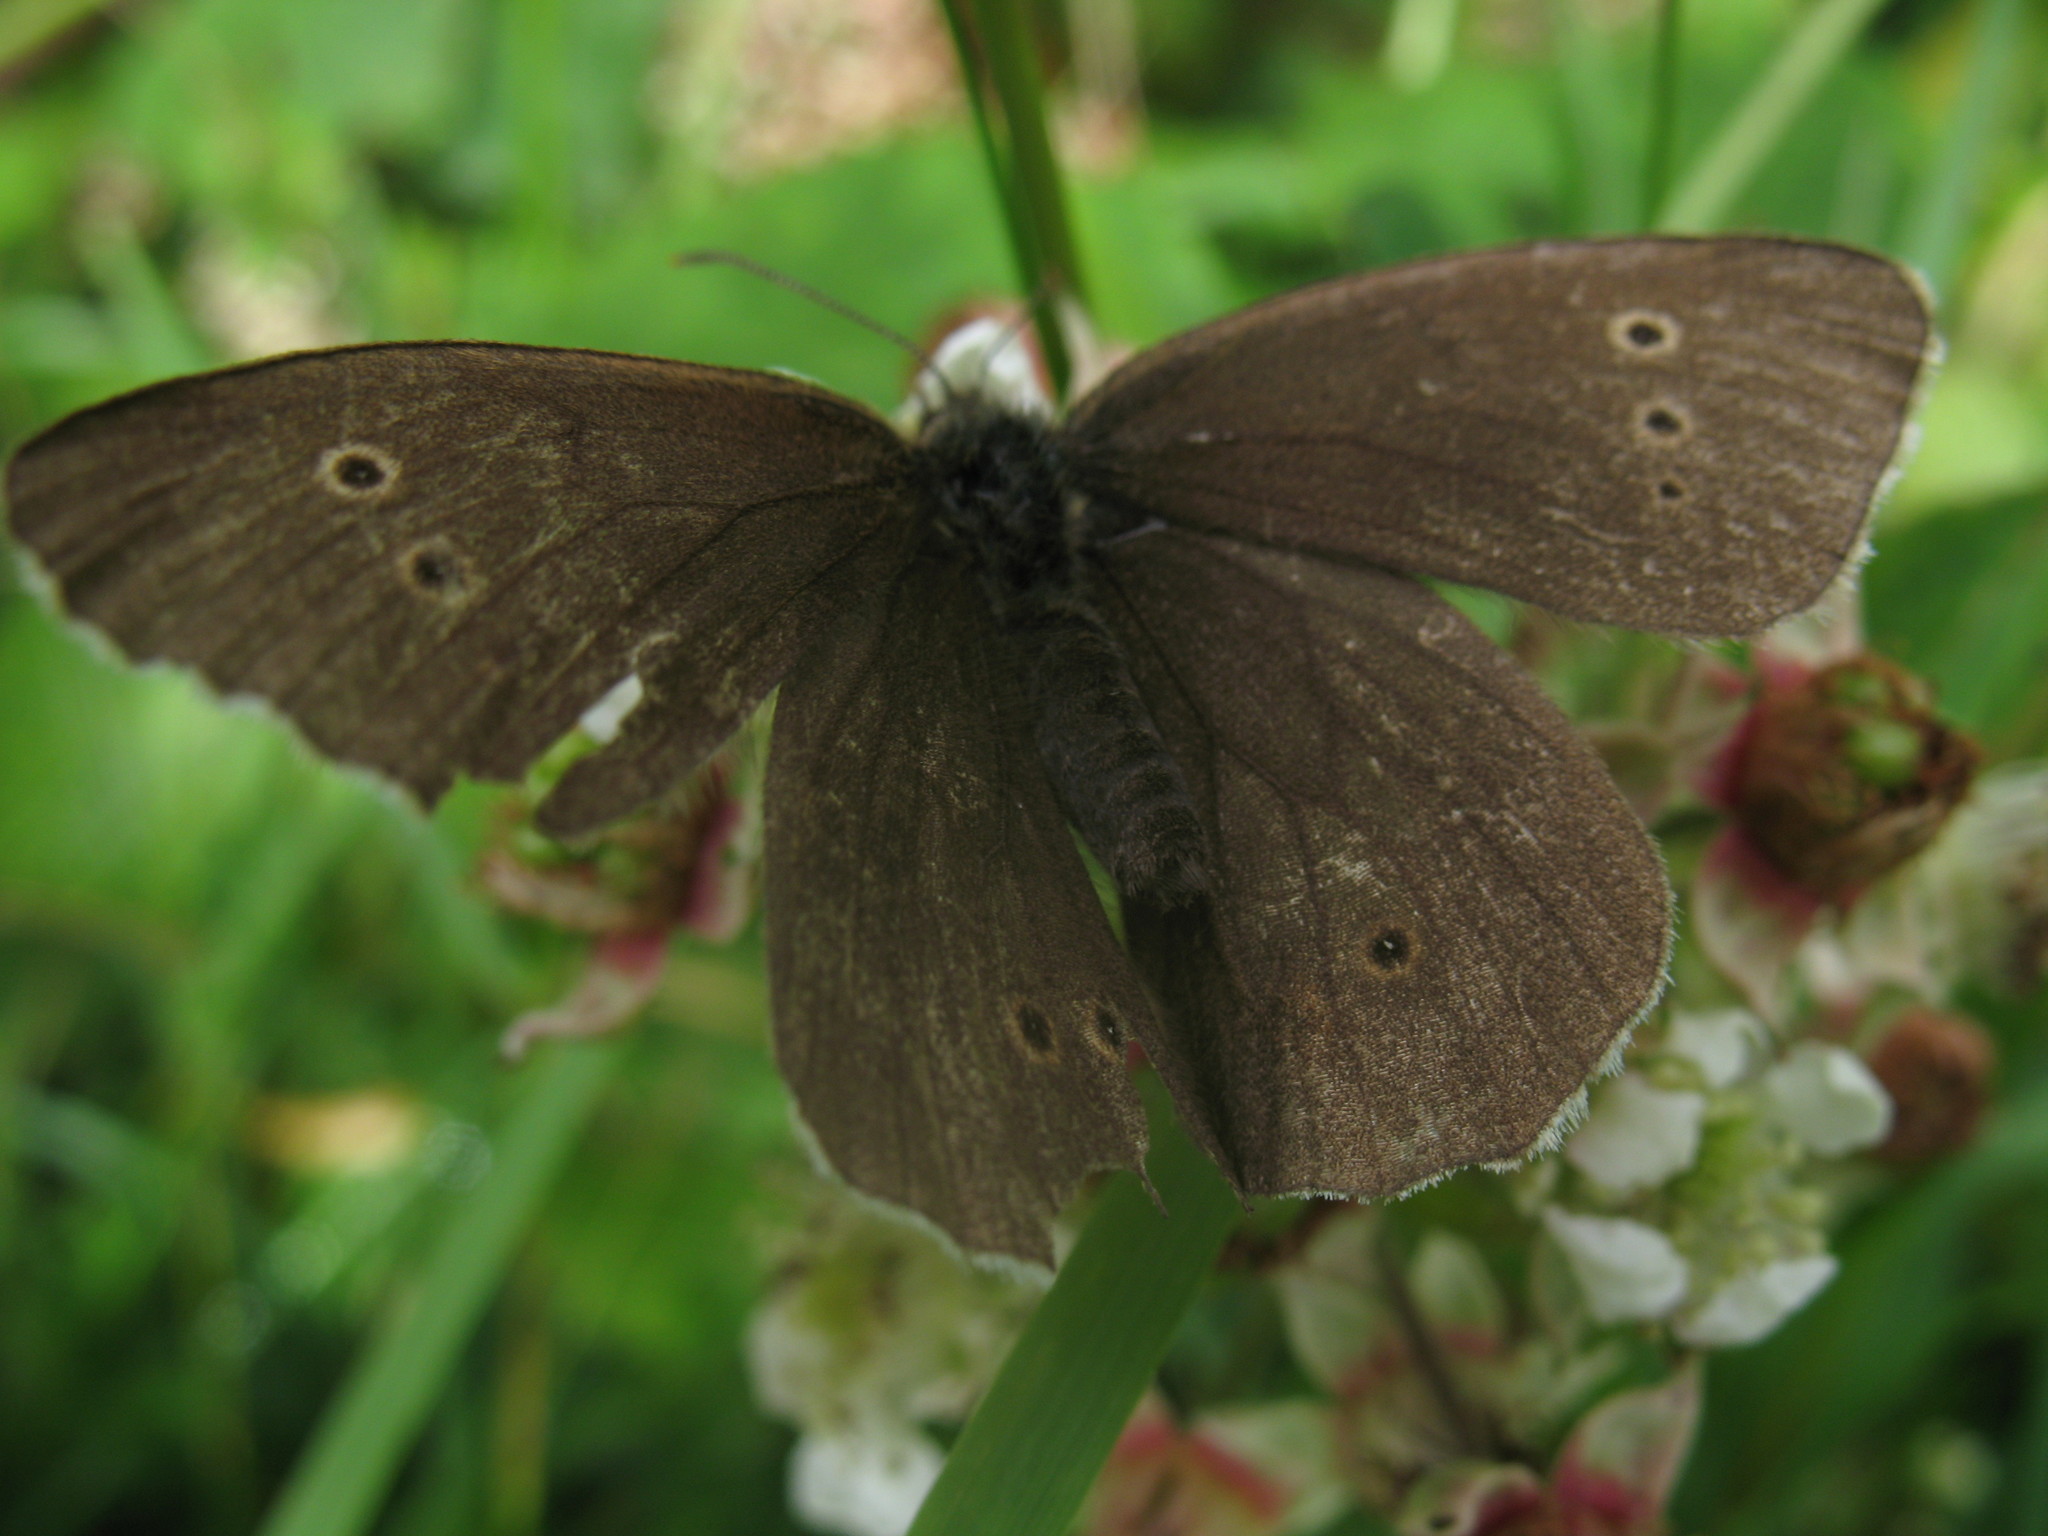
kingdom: Animalia
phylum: Arthropoda
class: Insecta
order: Lepidoptera
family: Nymphalidae
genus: Aphantopus
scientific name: Aphantopus hyperantus
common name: Ringlet
